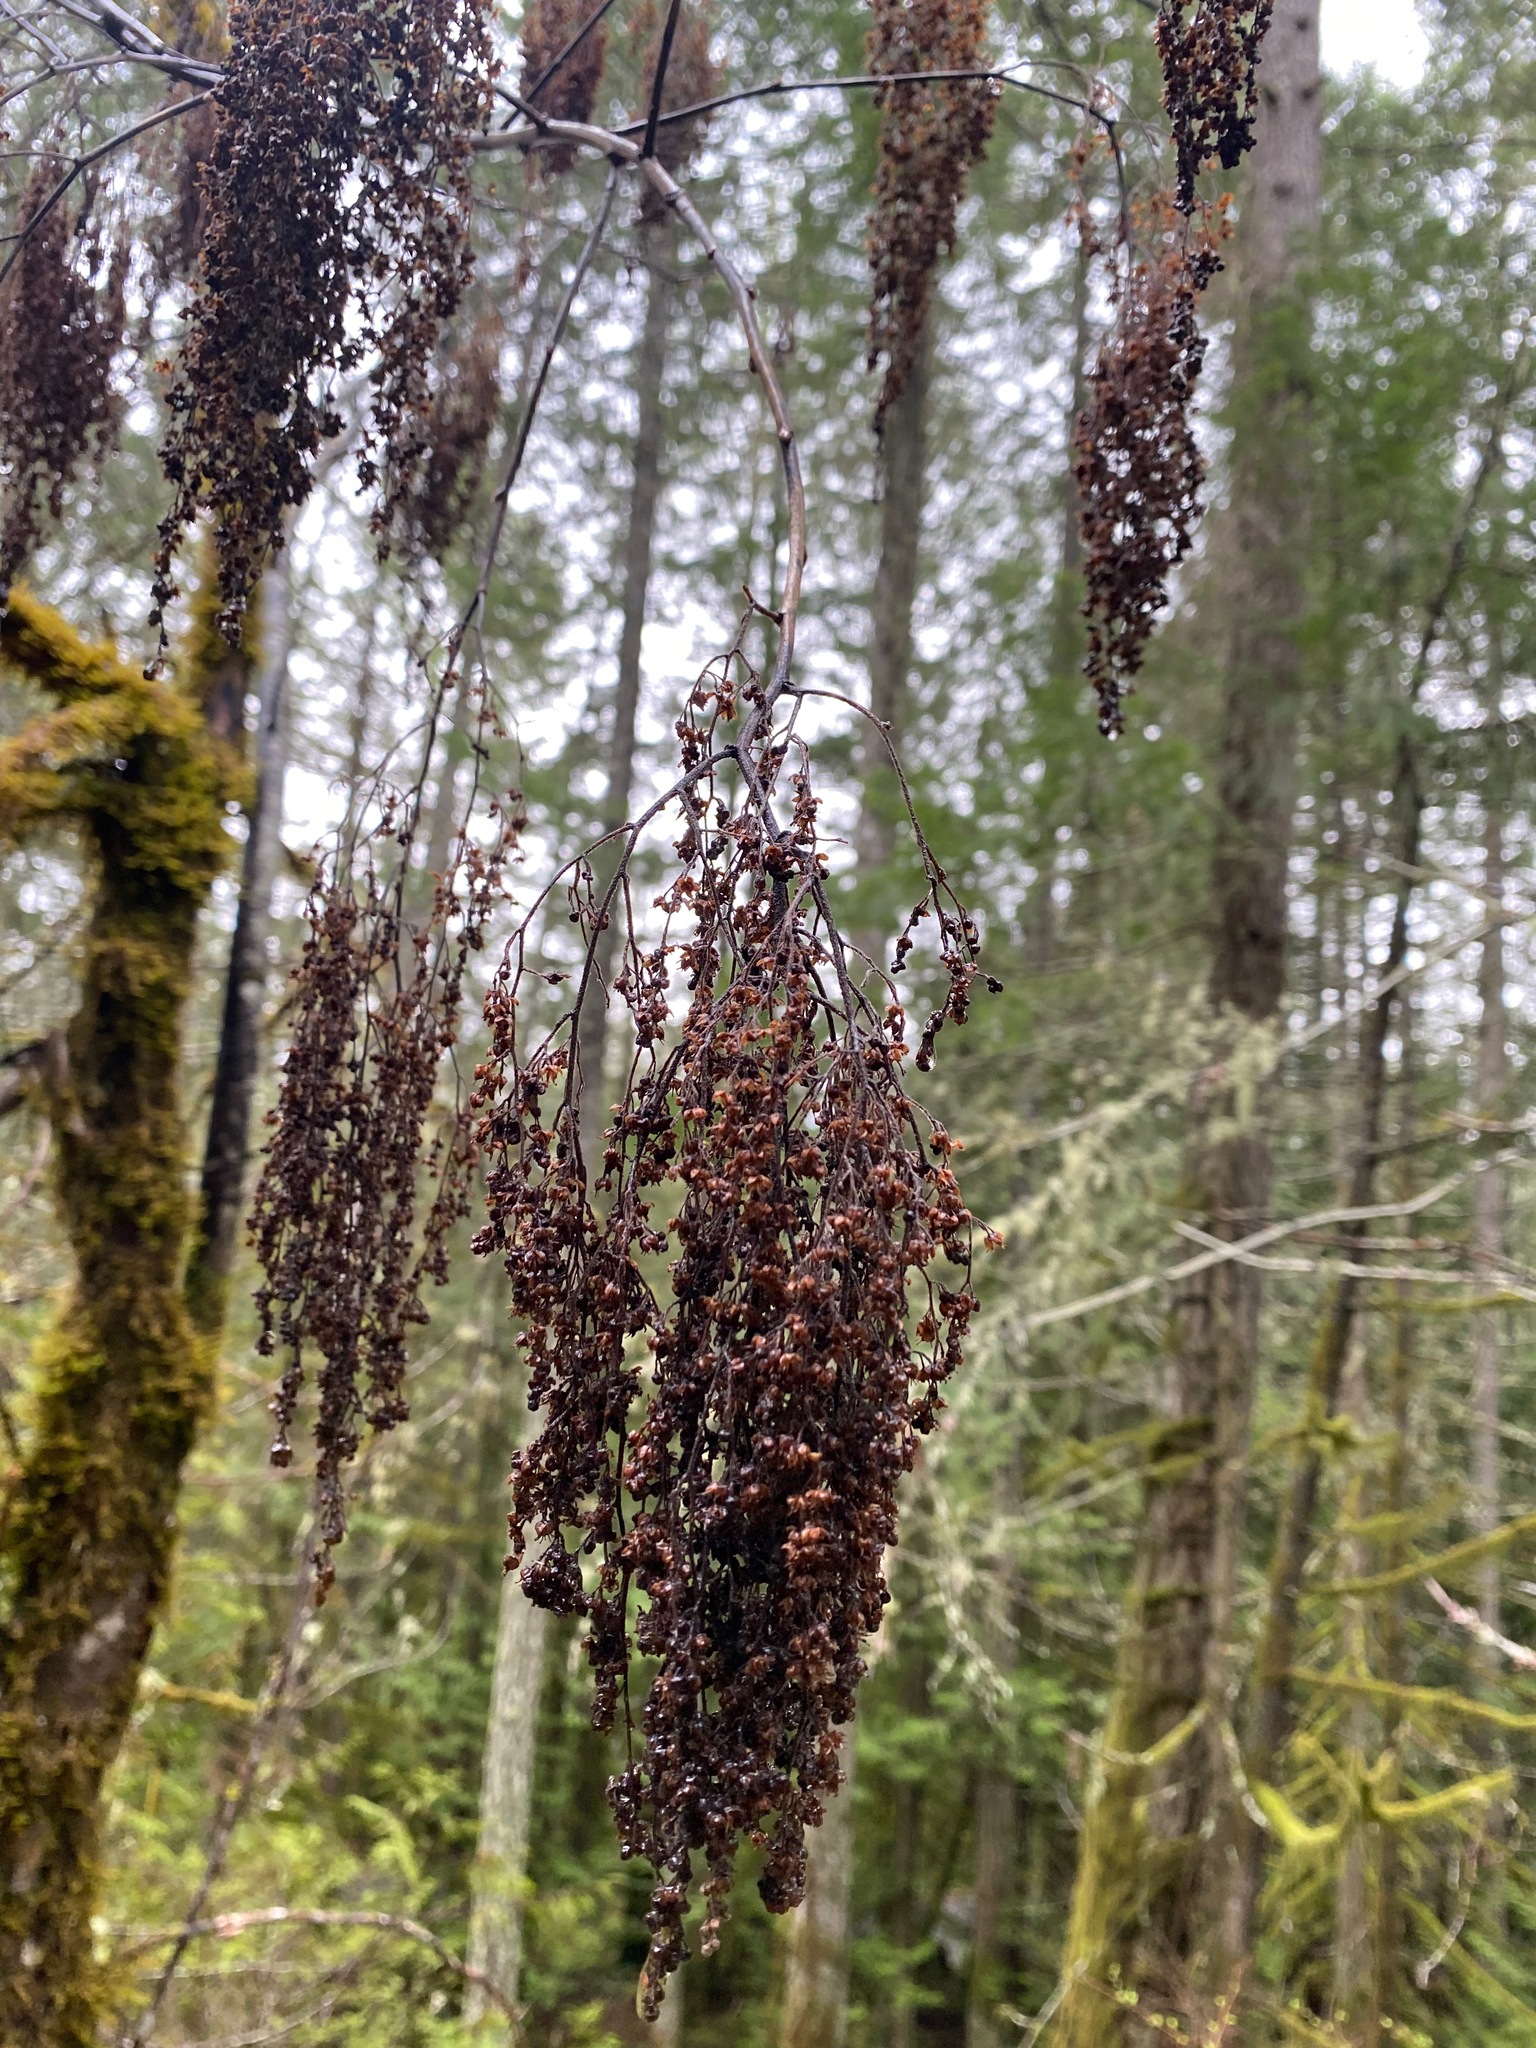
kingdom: Plantae
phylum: Tracheophyta
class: Magnoliopsida
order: Rosales
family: Rosaceae
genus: Holodiscus
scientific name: Holodiscus discolor
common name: Oceanspray
